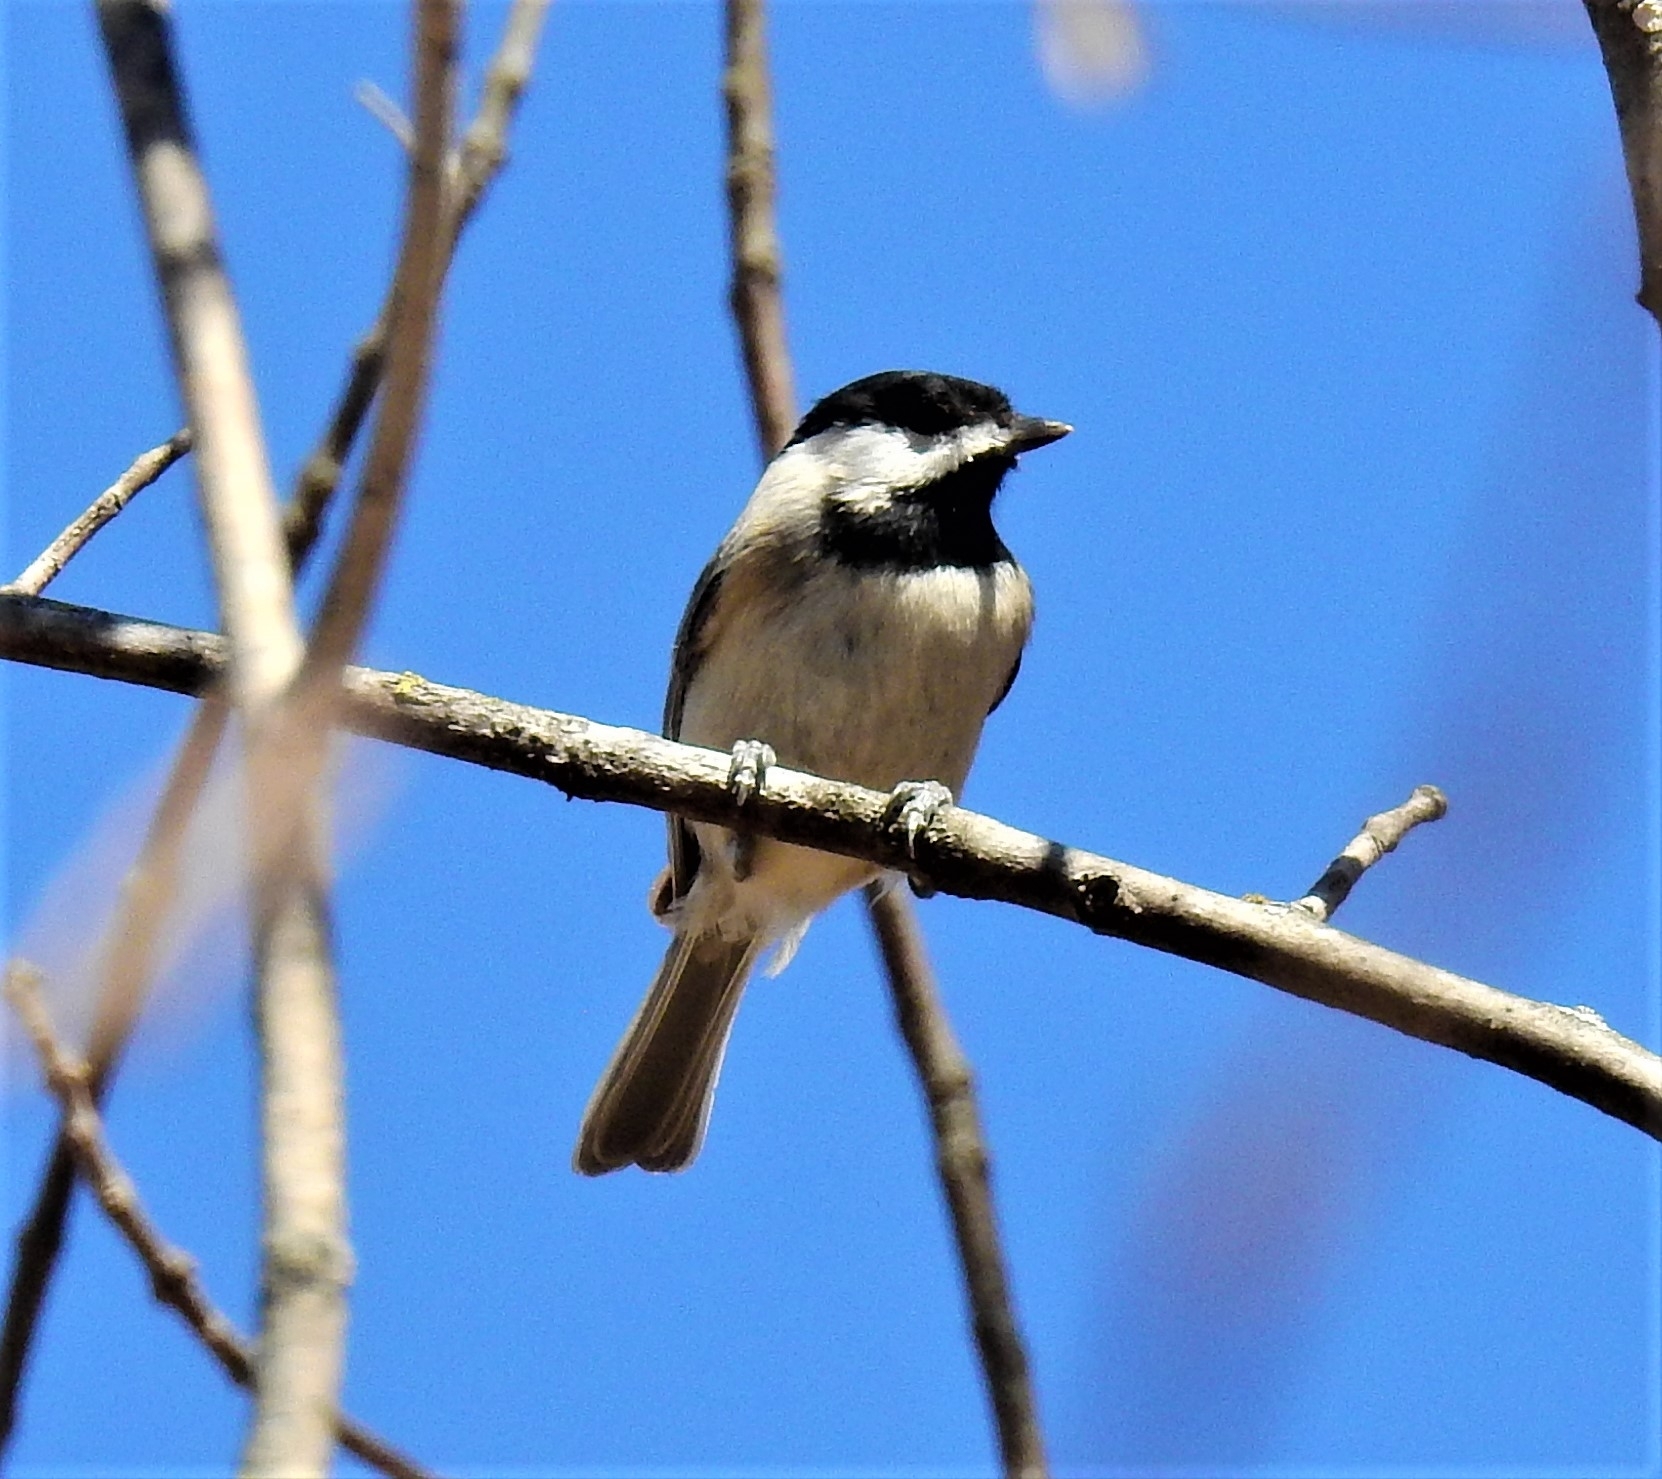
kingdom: Animalia
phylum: Chordata
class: Aves
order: Passeriformes
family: Paridae
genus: Poecile
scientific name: Poecile carolinensis
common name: Carolina chickadee
